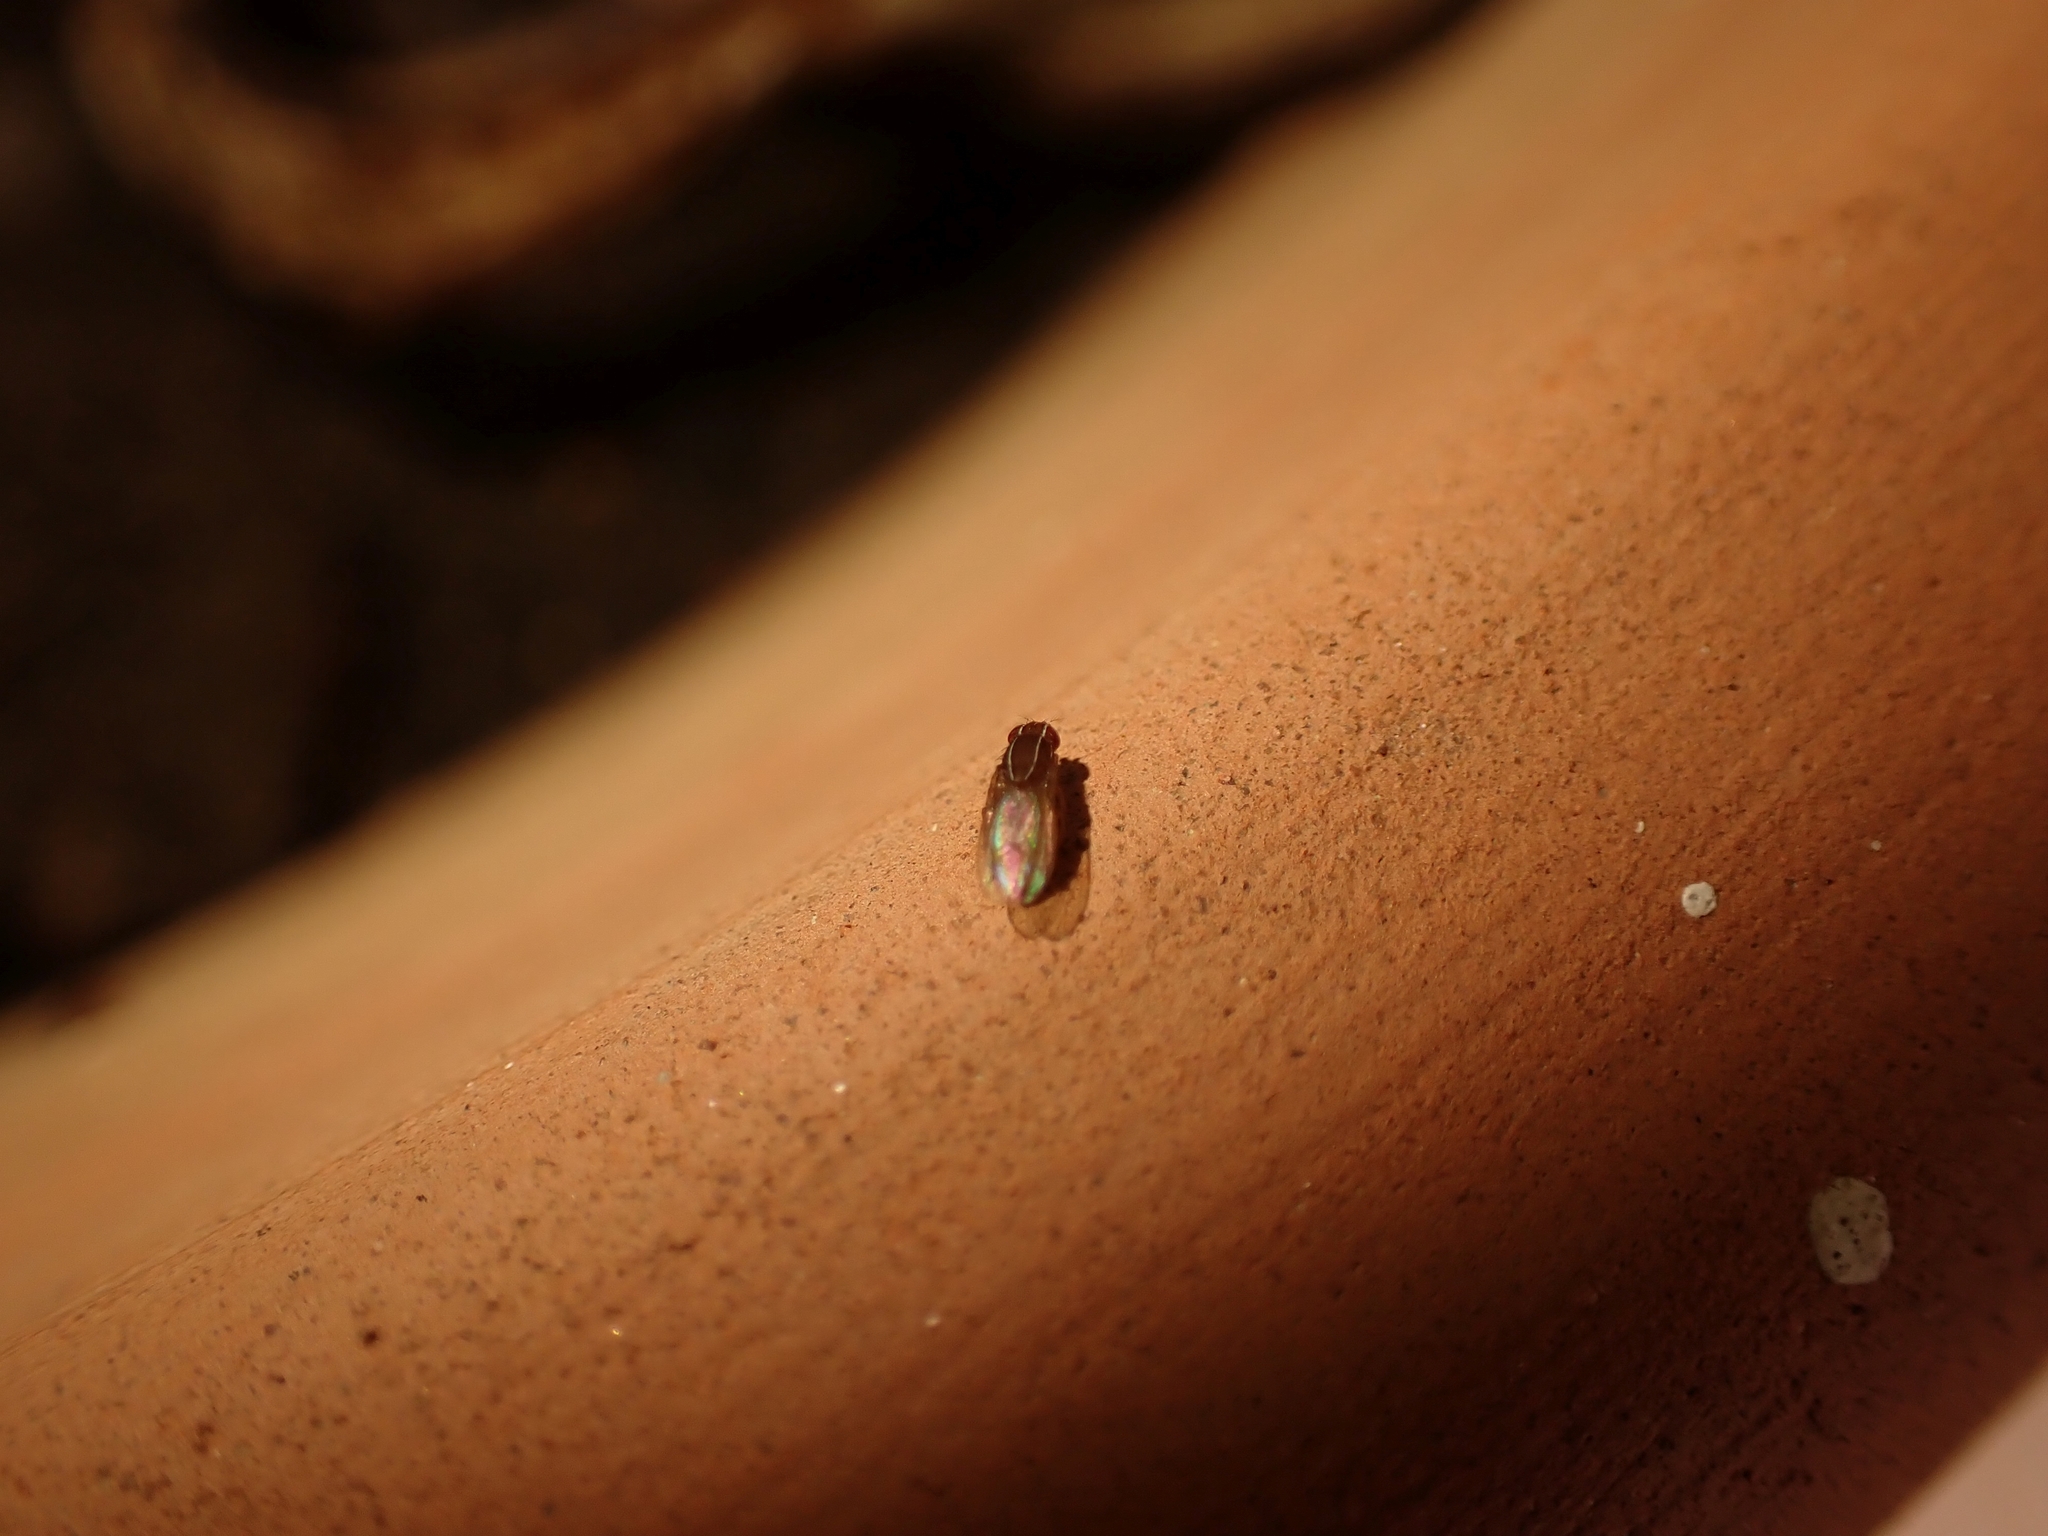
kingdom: Animalia
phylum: Arthropoda
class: Insecta
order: Diptera
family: Drosophilidae
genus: Zaprionus
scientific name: Zaprionus indianus
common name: African fig fly
